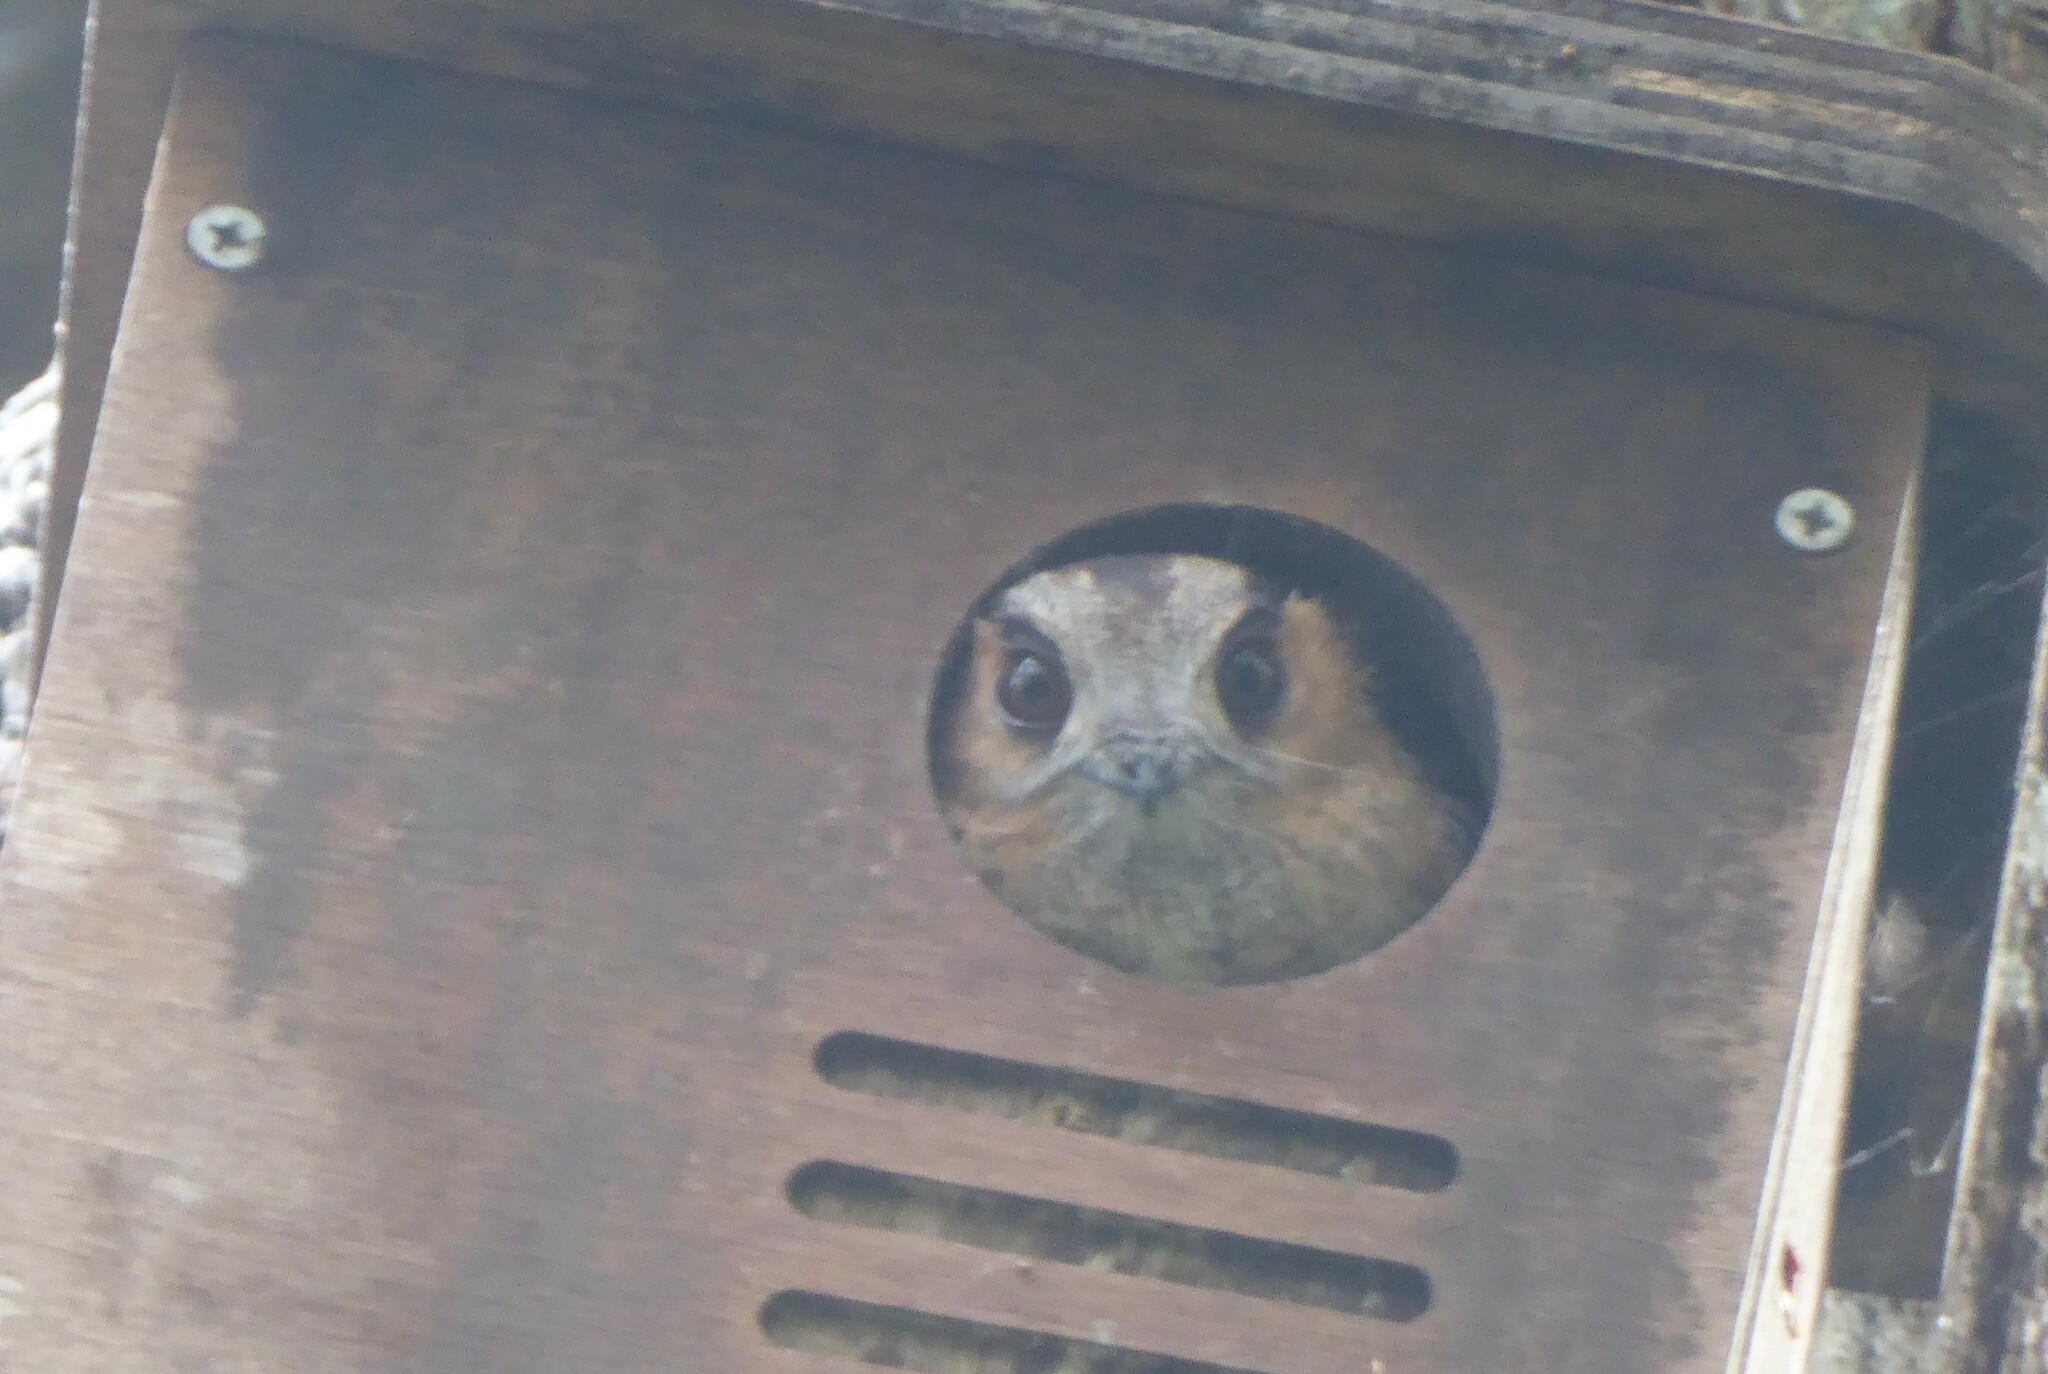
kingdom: Animalia
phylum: Chordata
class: Aves
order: Apodiformes
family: Aegothelidae
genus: Aegotheles
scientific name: Aegotheles cristatus
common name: Australian owlet-nightjar
